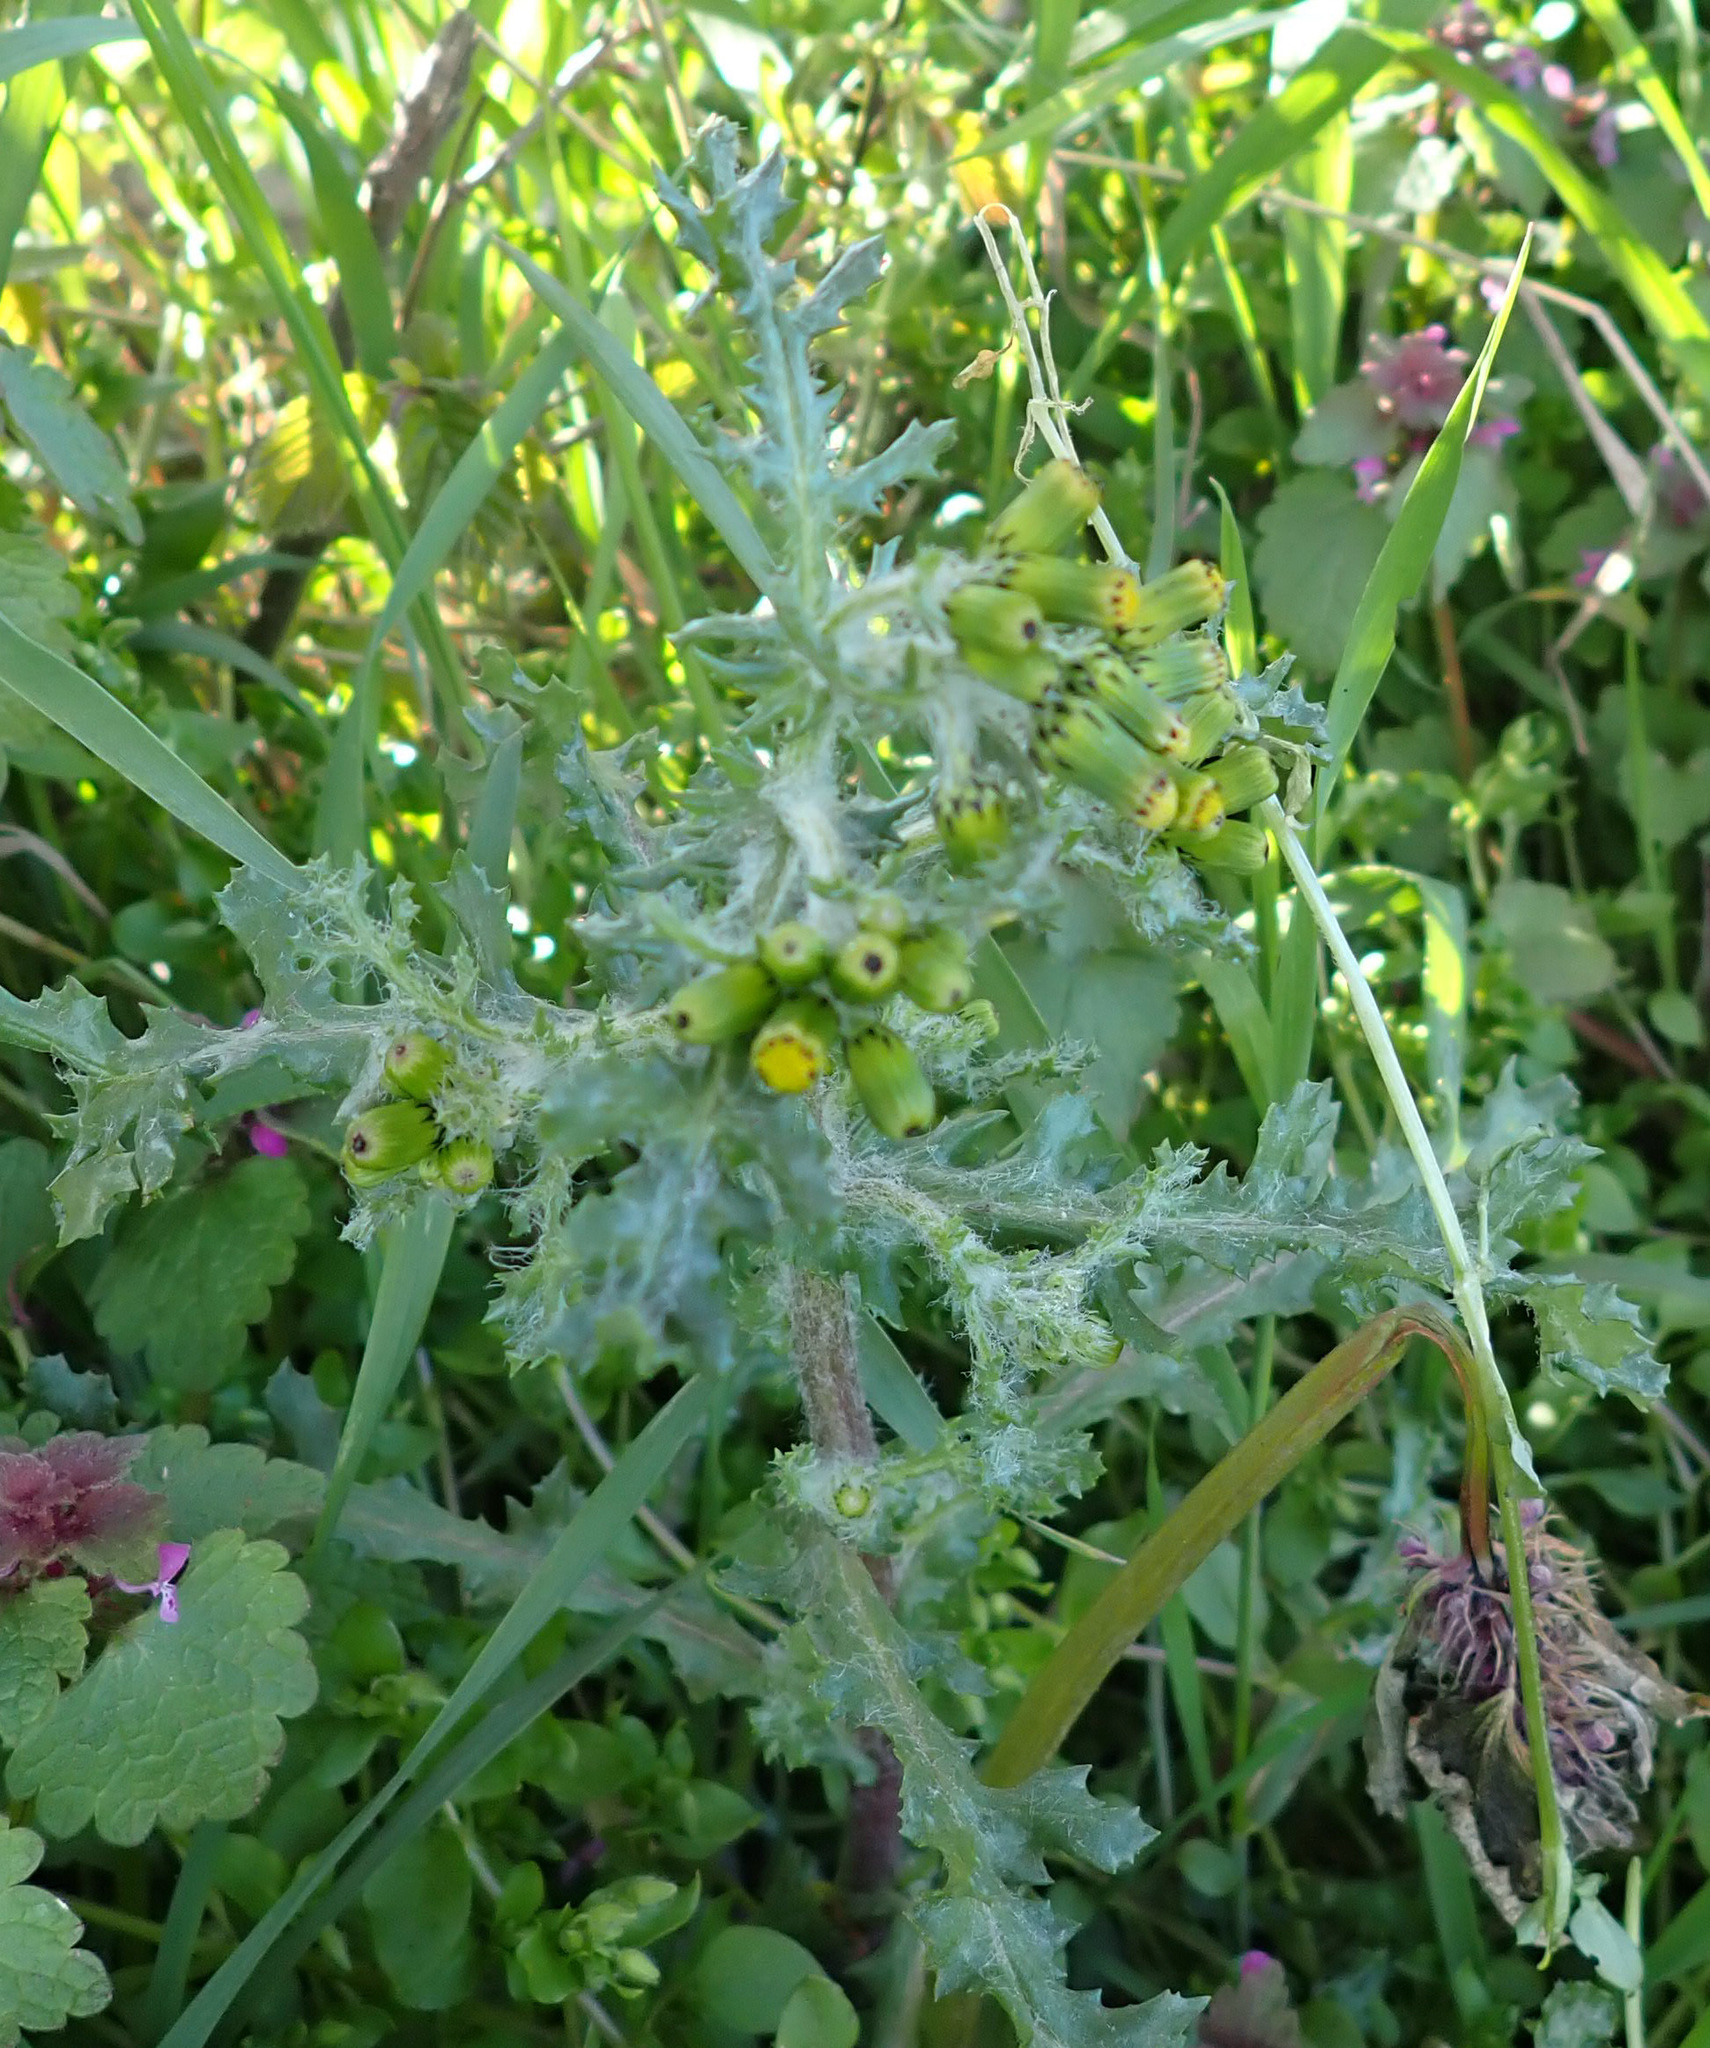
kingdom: Plantae
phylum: Tracheophyta
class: Magnoliopsida
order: Asterales
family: Asteraceae
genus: Senecio
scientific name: Senecio vulgaris
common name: Old-man-in-the-spring
